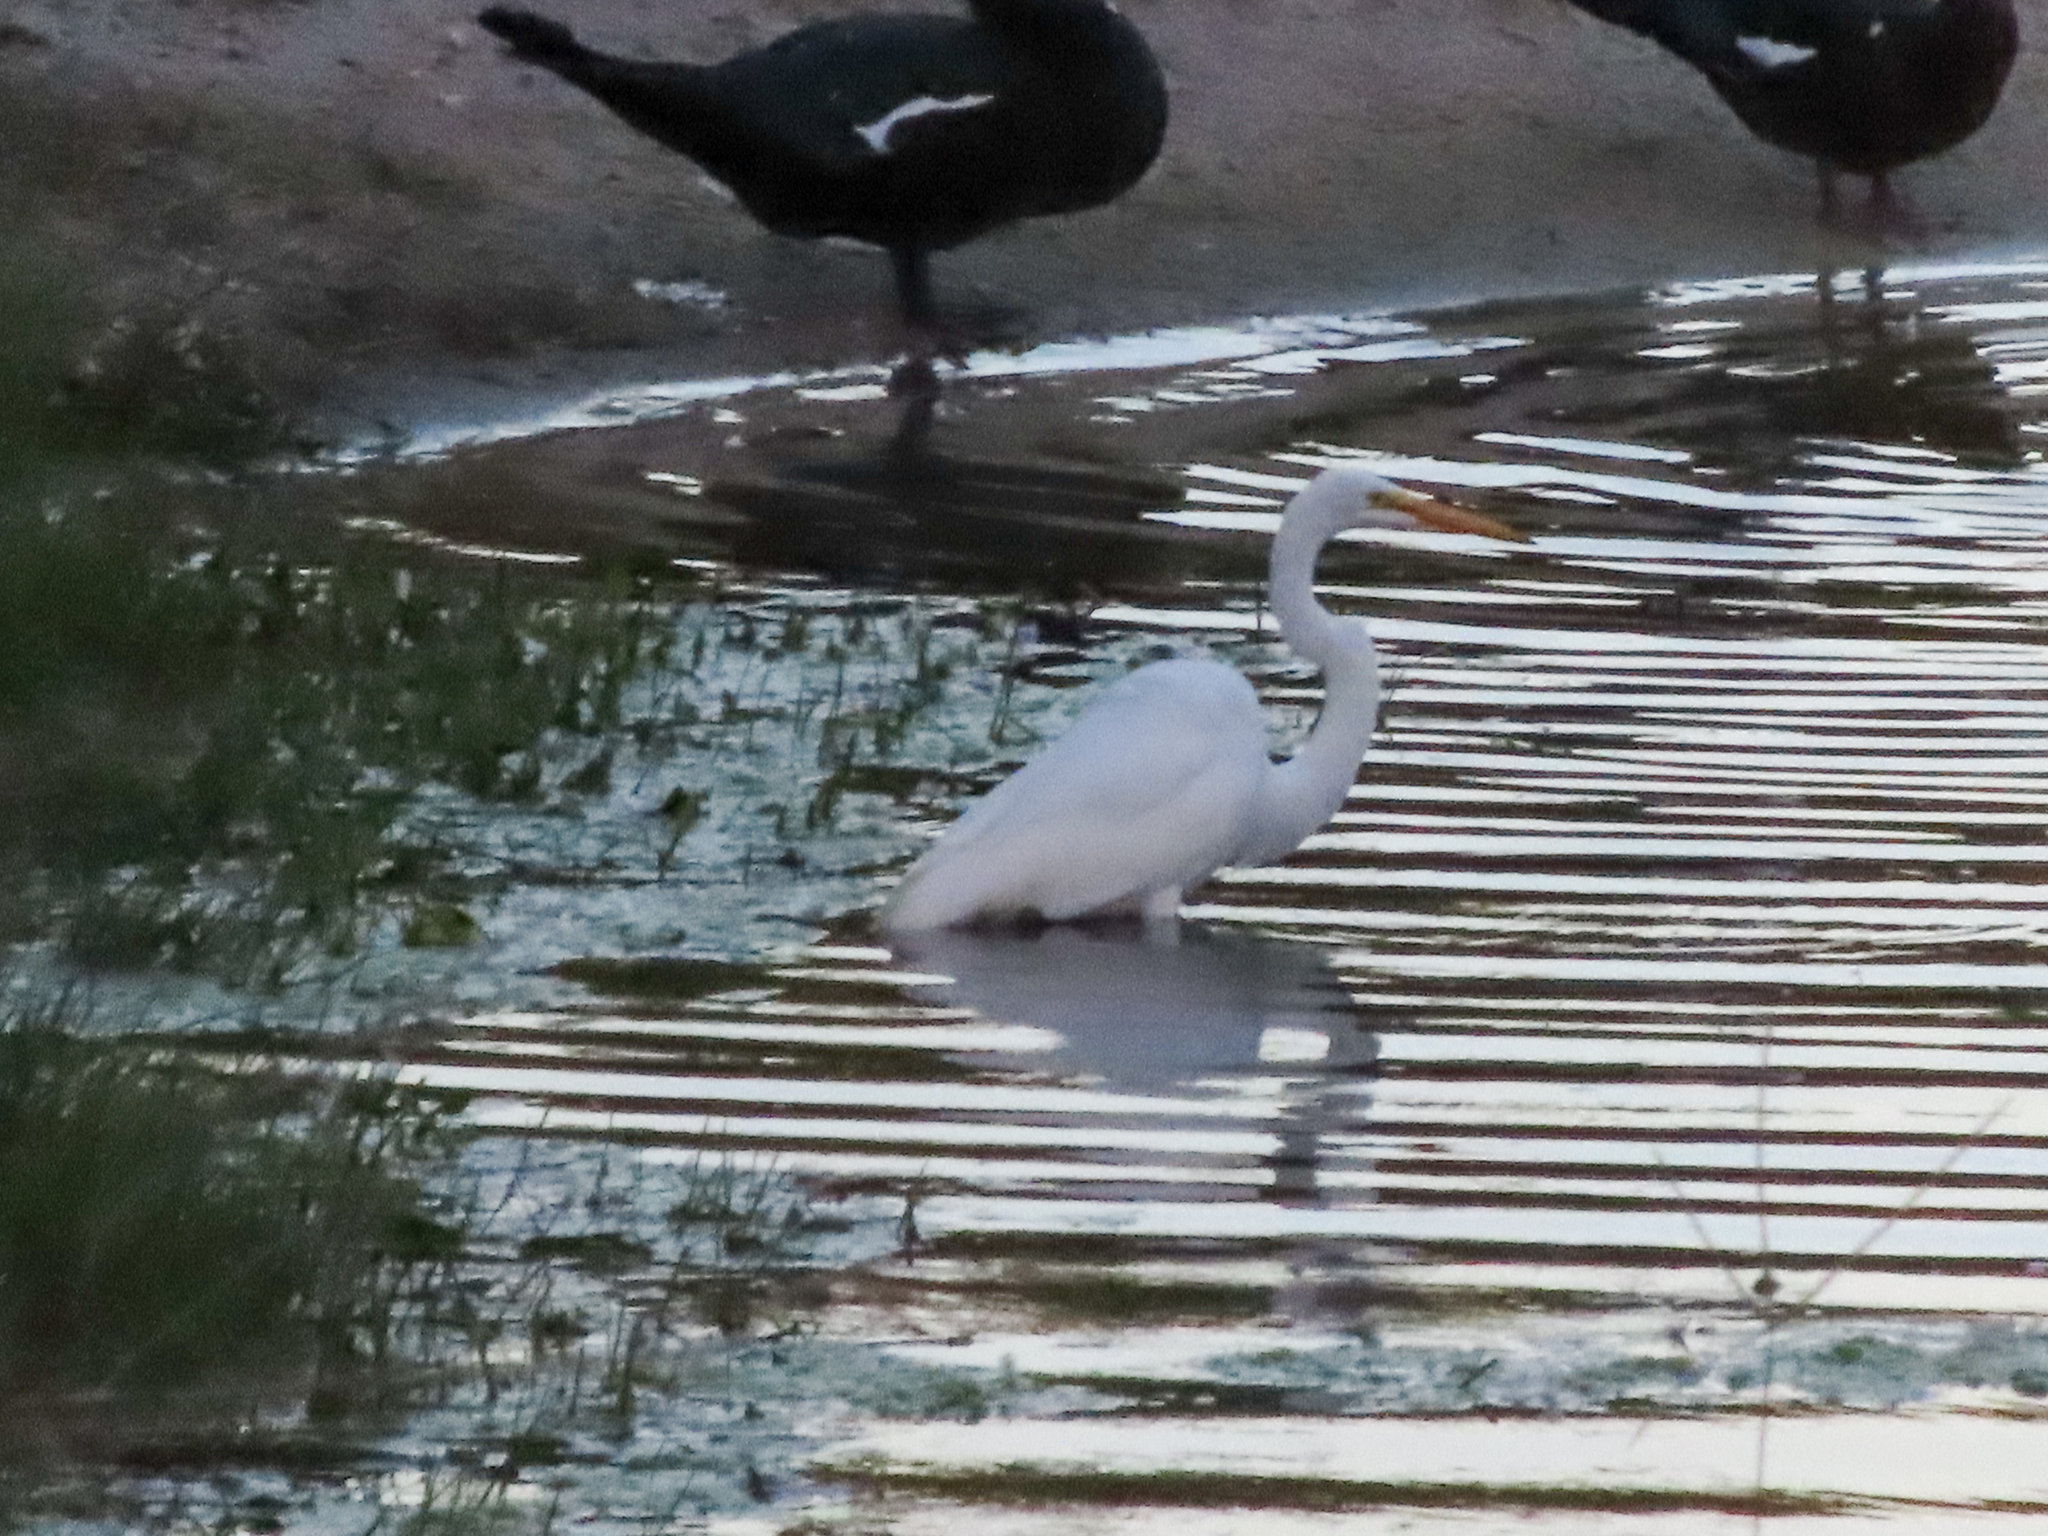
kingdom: Animalia
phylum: Chordata
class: Aves
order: Pelecaniformes
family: Ardeidae
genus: Ardea
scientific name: Ardea alba
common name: Great egret
